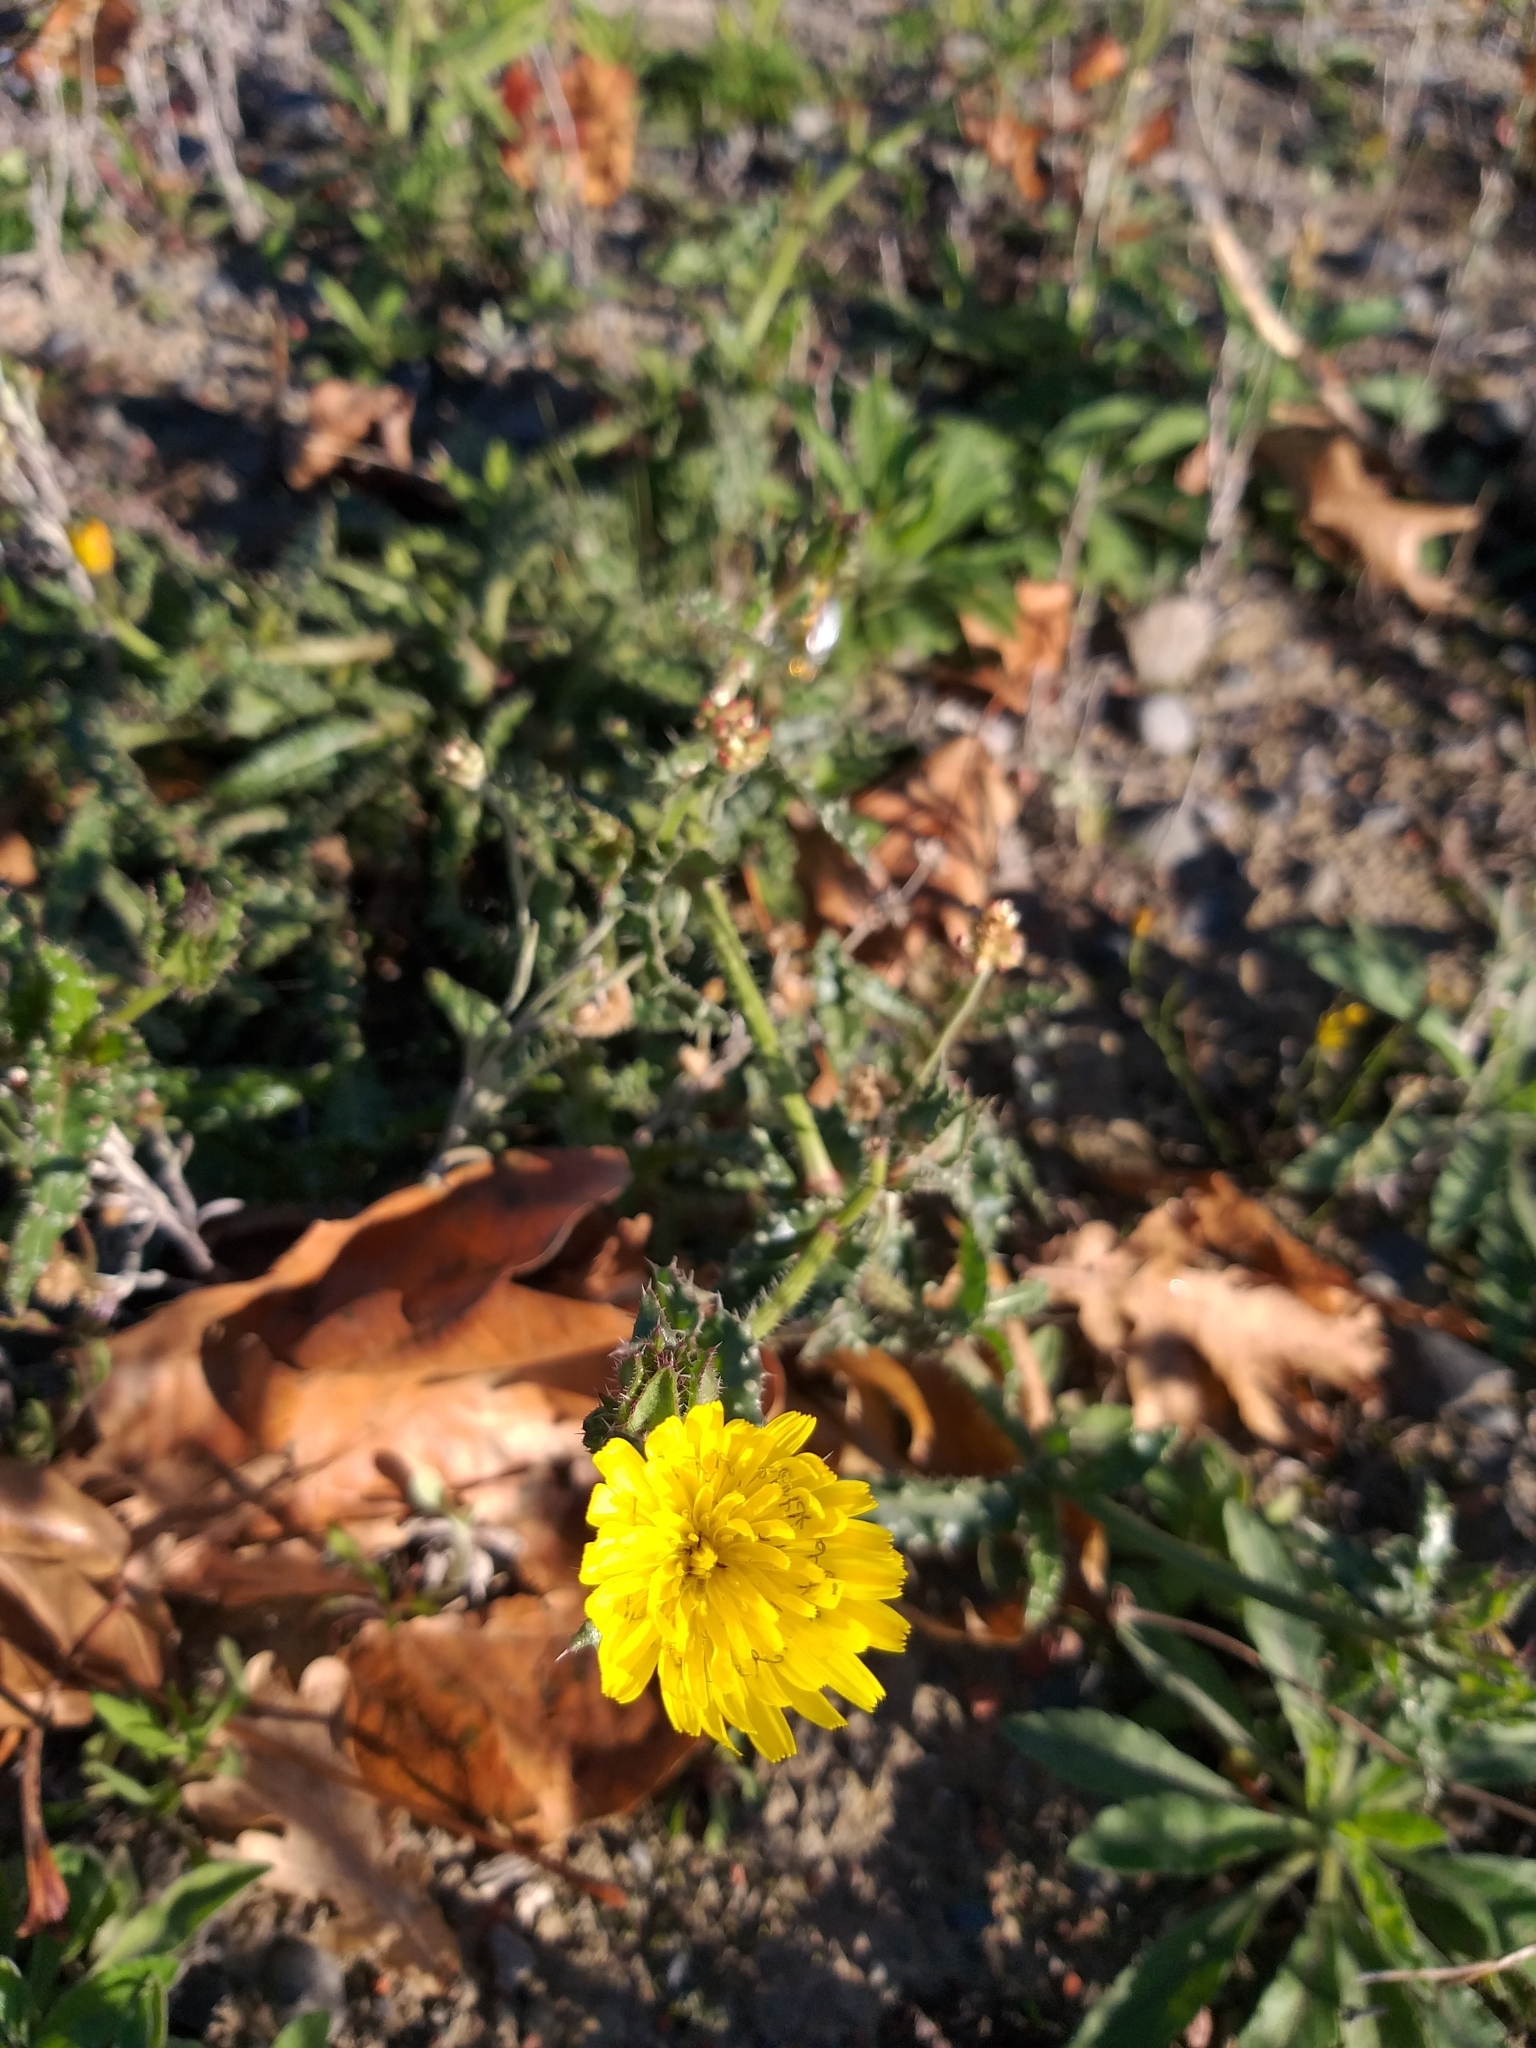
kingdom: Plantae
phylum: Tracheophyta
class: Magnoliopsida
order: Asterales
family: Asteraceae
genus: Helminthotheca
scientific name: Helminthotheca echioides
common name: Ox-tongue
